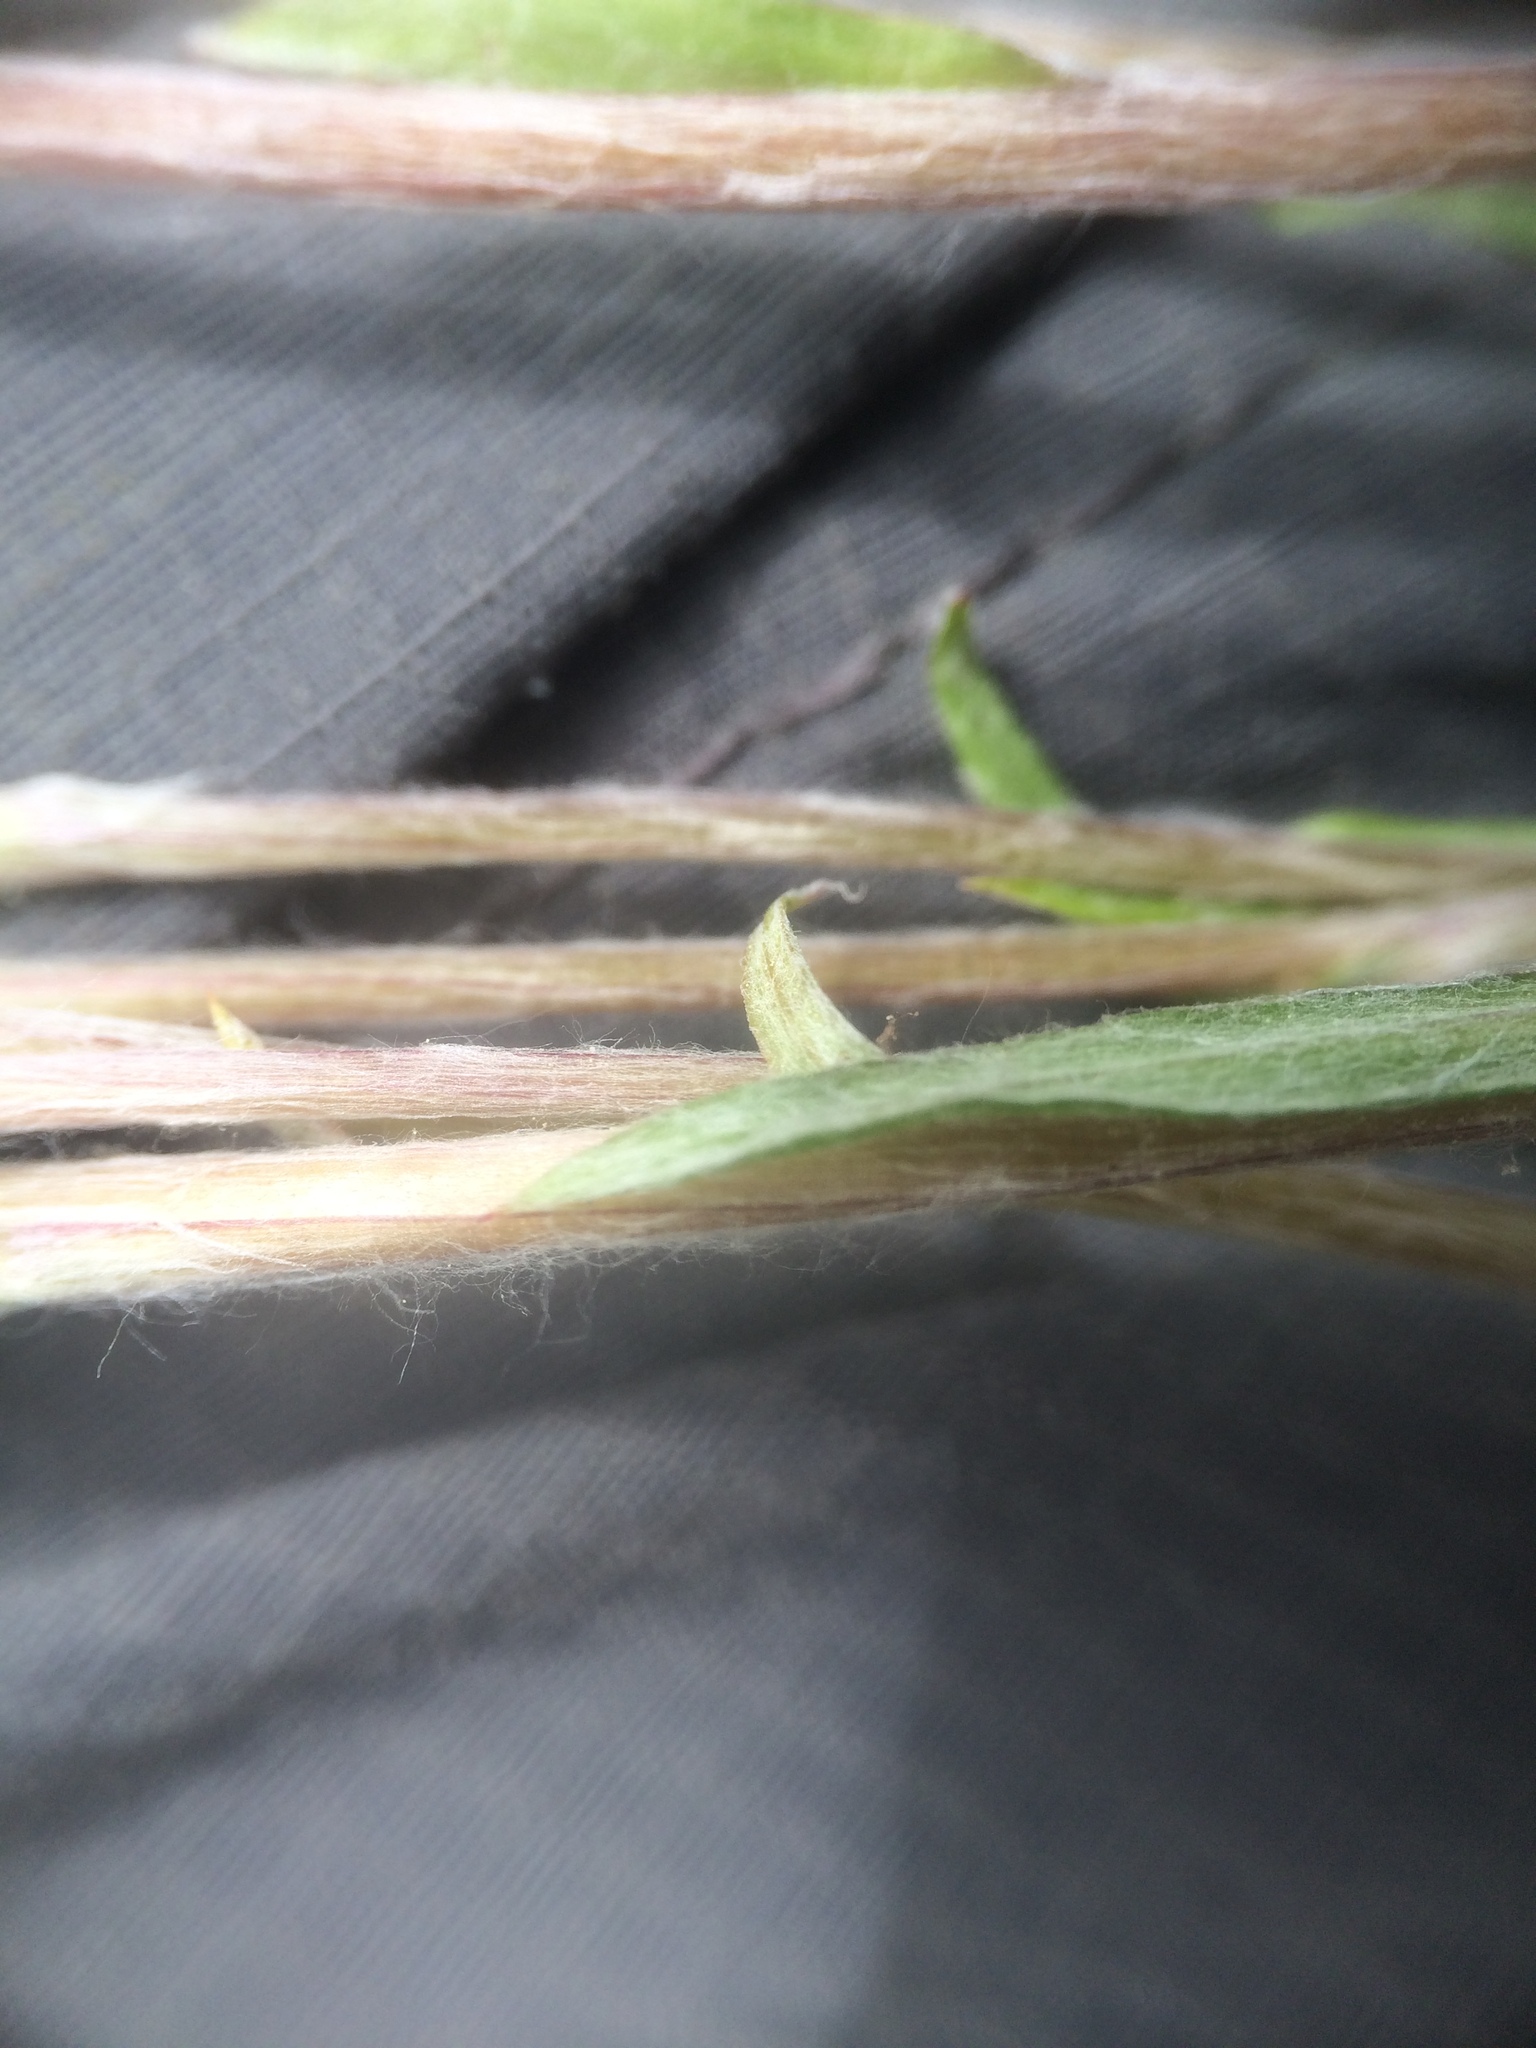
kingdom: Plantae
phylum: Tracheophyta
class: Magnoliopsida
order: Asterales
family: Asteraceae
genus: Antennaria
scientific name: Antennaria howellii
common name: Howell's pussytoes
